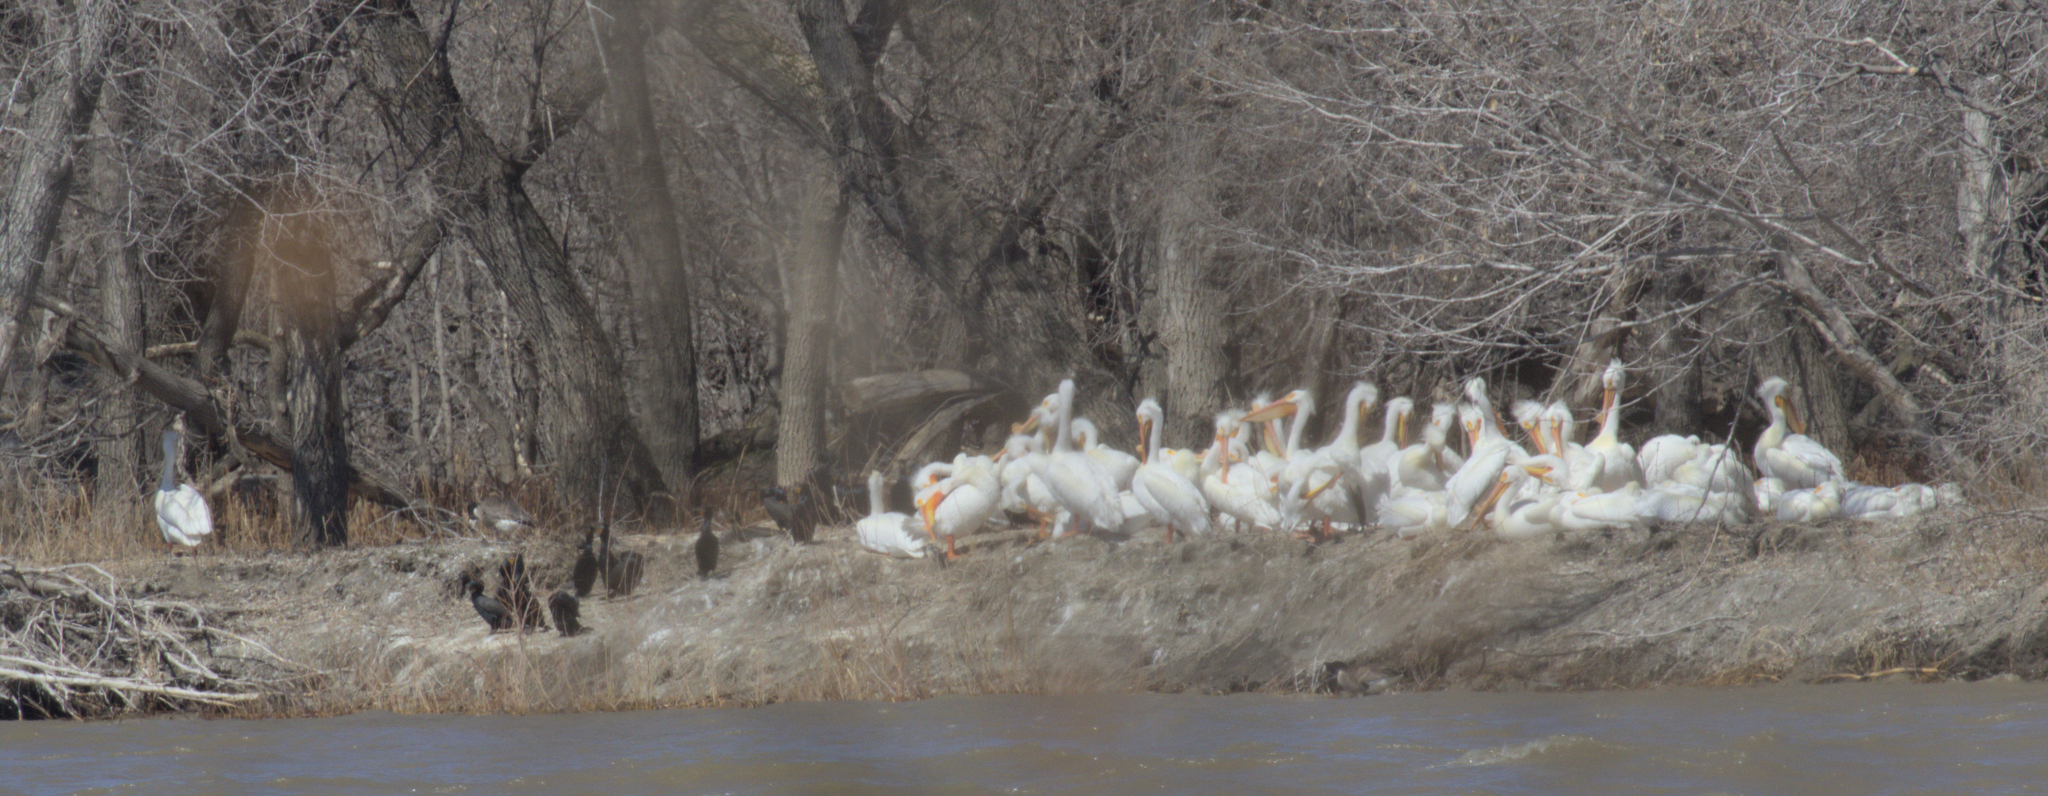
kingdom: Animalia
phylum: Chordata
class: Aves
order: Pelecaniformes
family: Pelecanidae
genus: Pelecanus
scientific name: Pelecanus erythrorhynchos
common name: American white pelican
